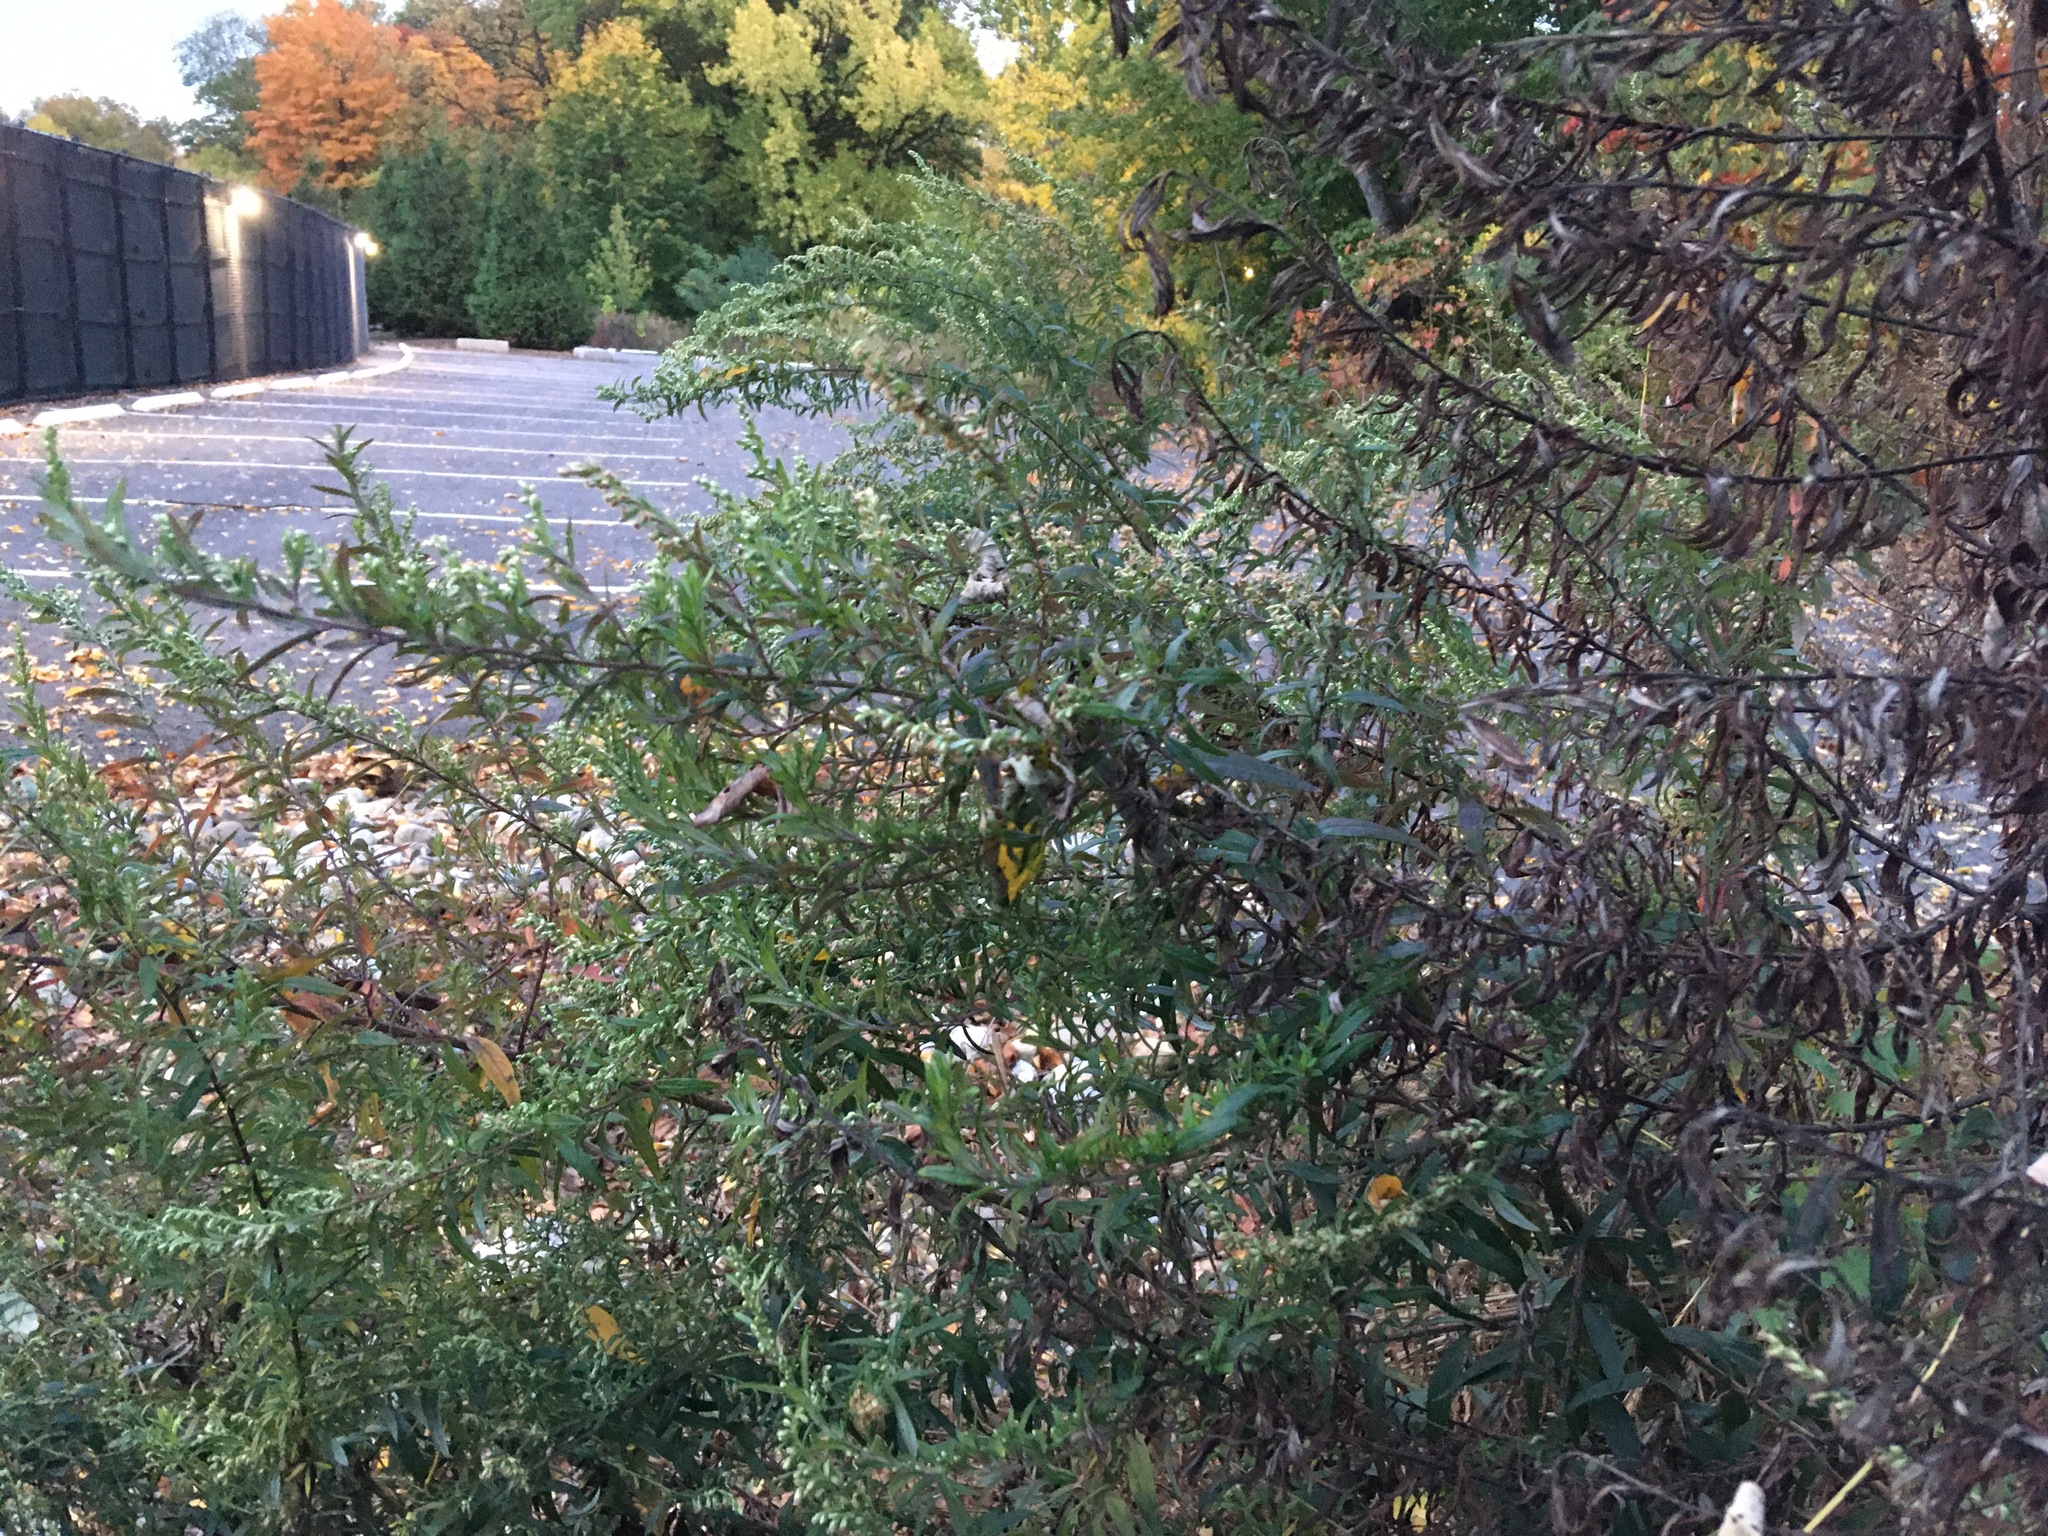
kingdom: Plantae
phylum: Tracheophyta
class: Magnoliopsida
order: Asterales
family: Asteraceae
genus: Artemisia
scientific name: Artemisia vulgaris
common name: Mugwort
